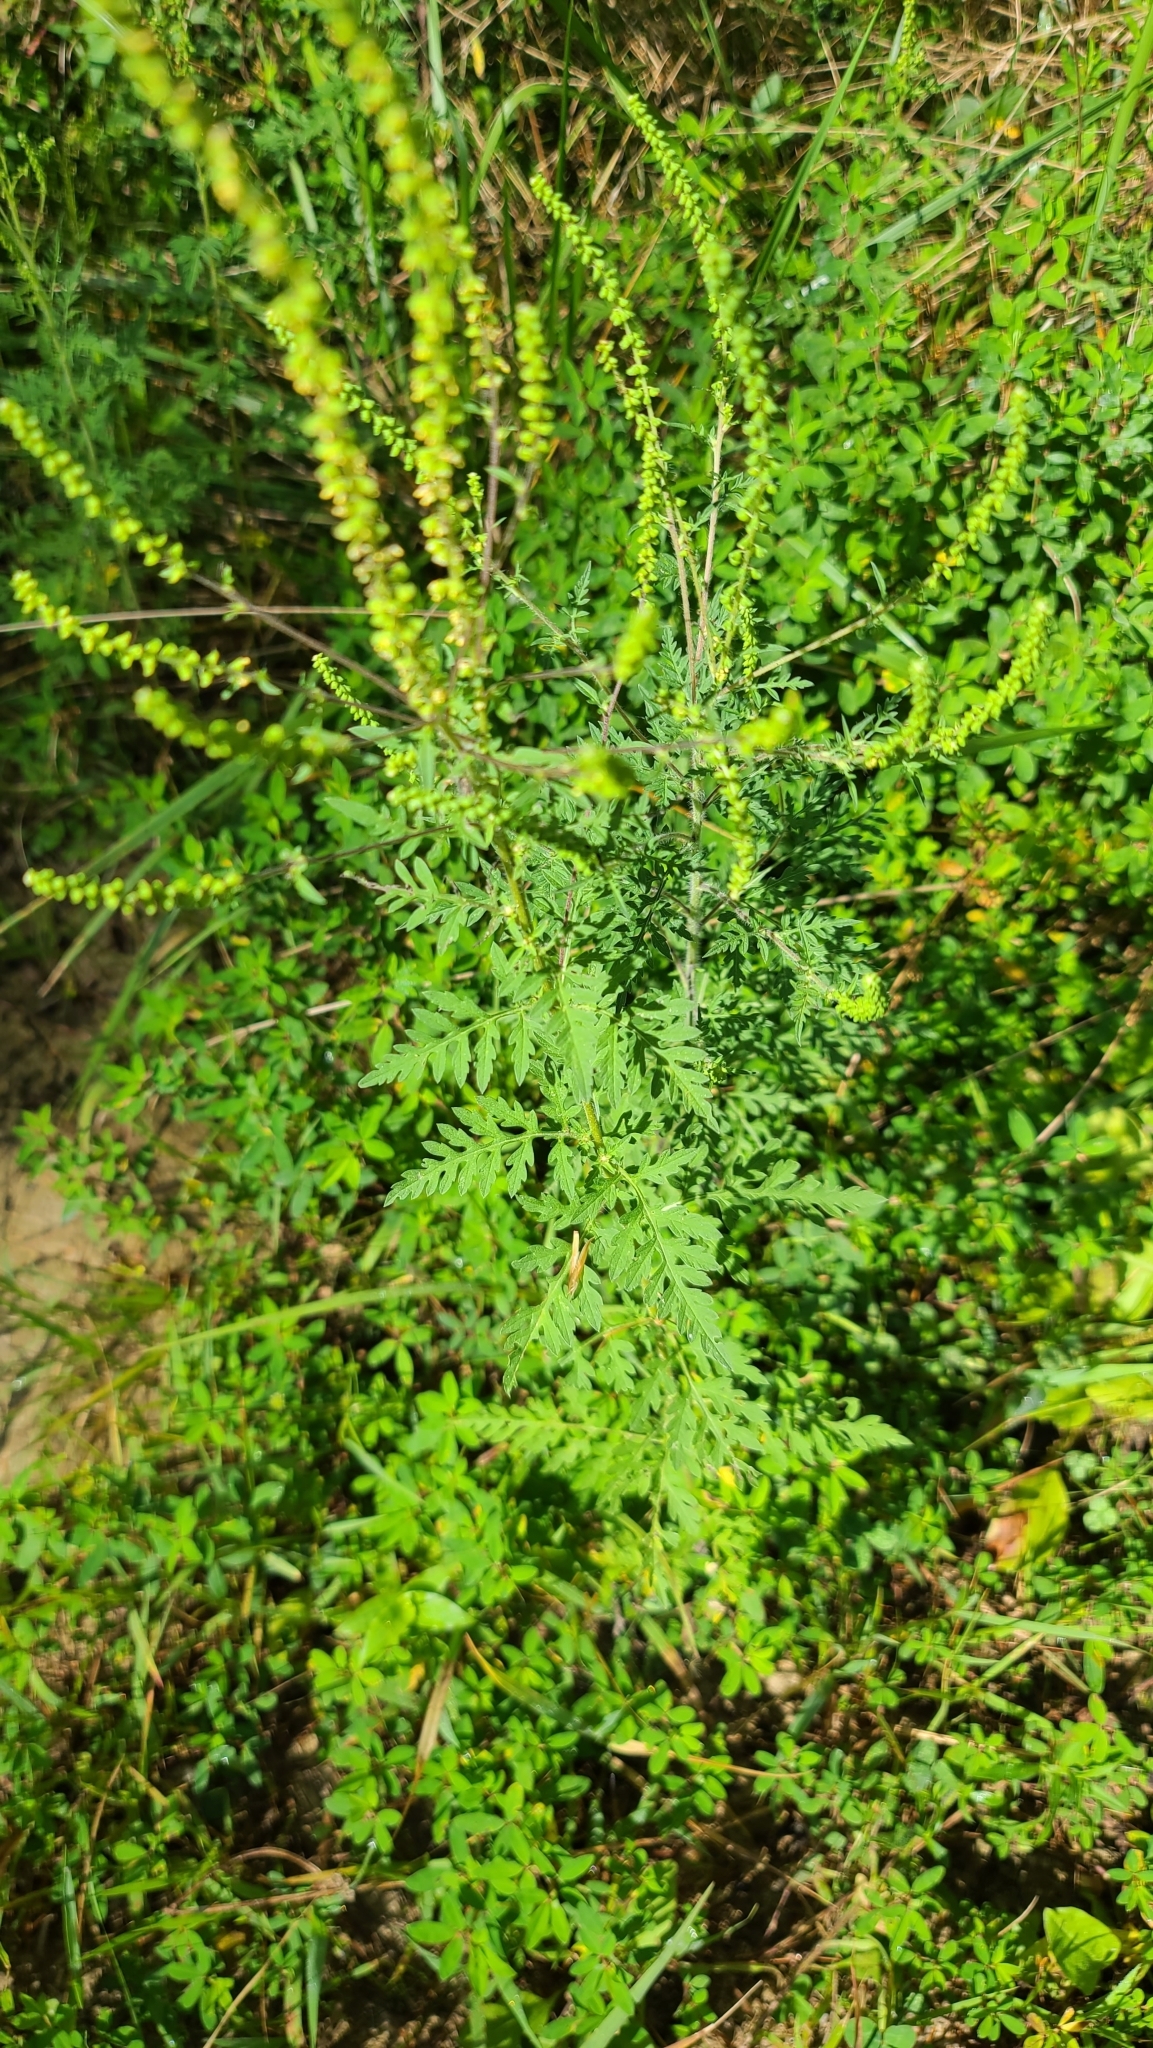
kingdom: Plantae
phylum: Tracheophyta
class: Magnoliopsida
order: Asterales
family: Asteraceae
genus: Ambrosia
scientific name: Ambrosia artemisiifolia
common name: Annual ragweed
